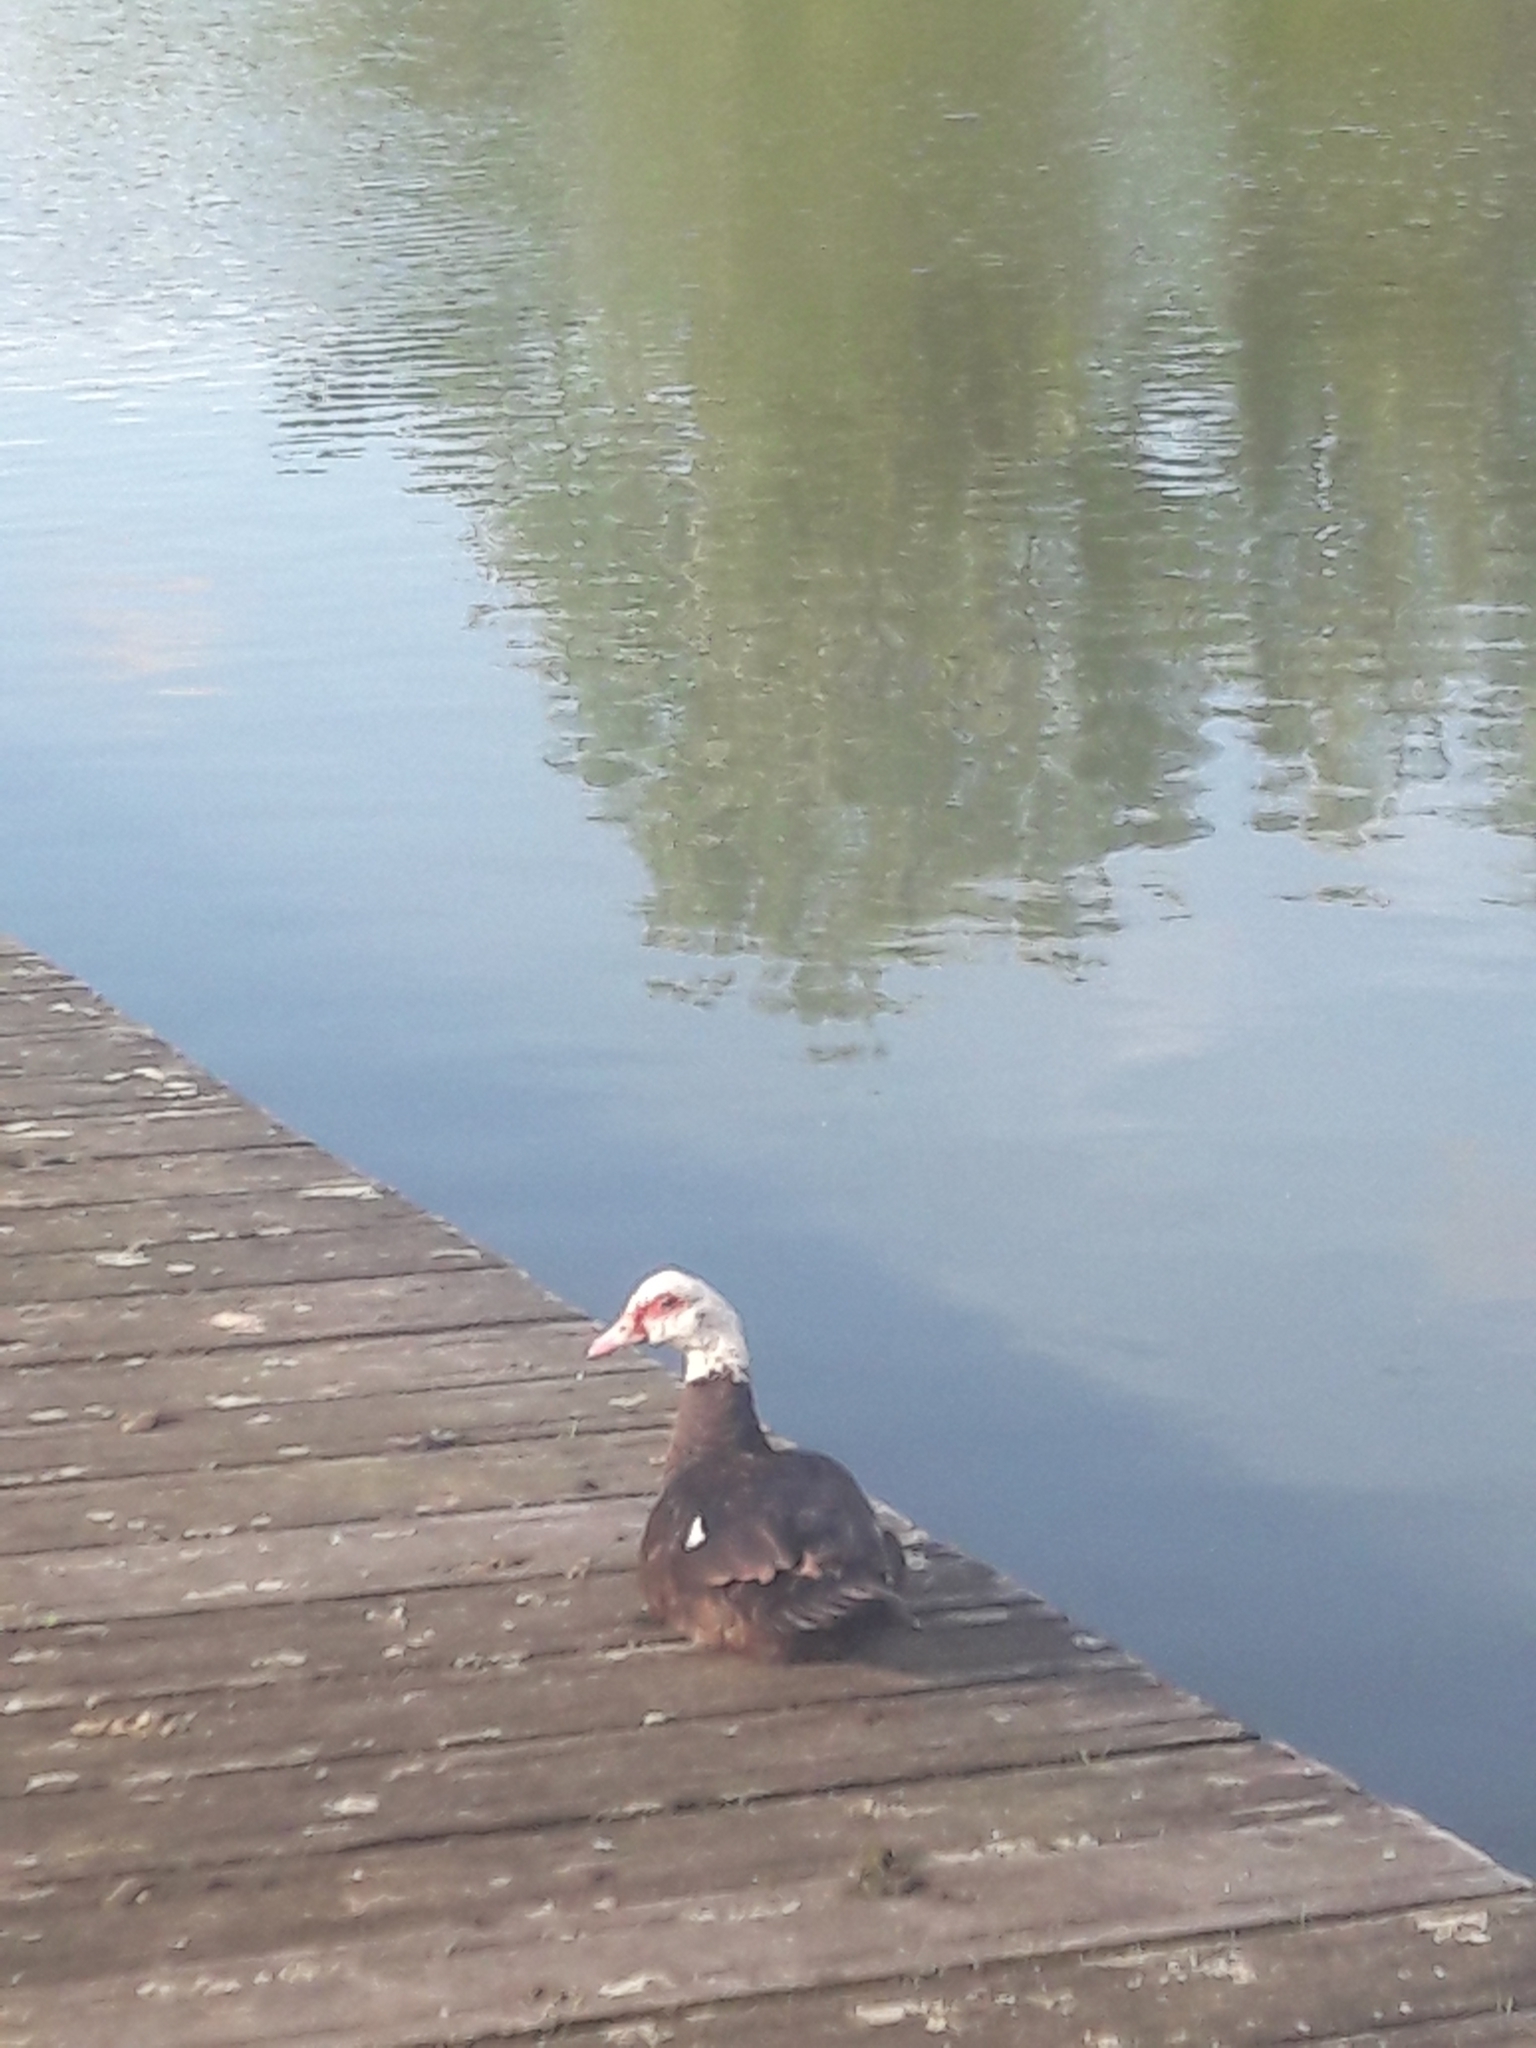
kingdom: Animalia
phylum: Chordata
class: Aves
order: Anseriformes
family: Anatidae
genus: Cairina
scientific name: Cairina moschata
